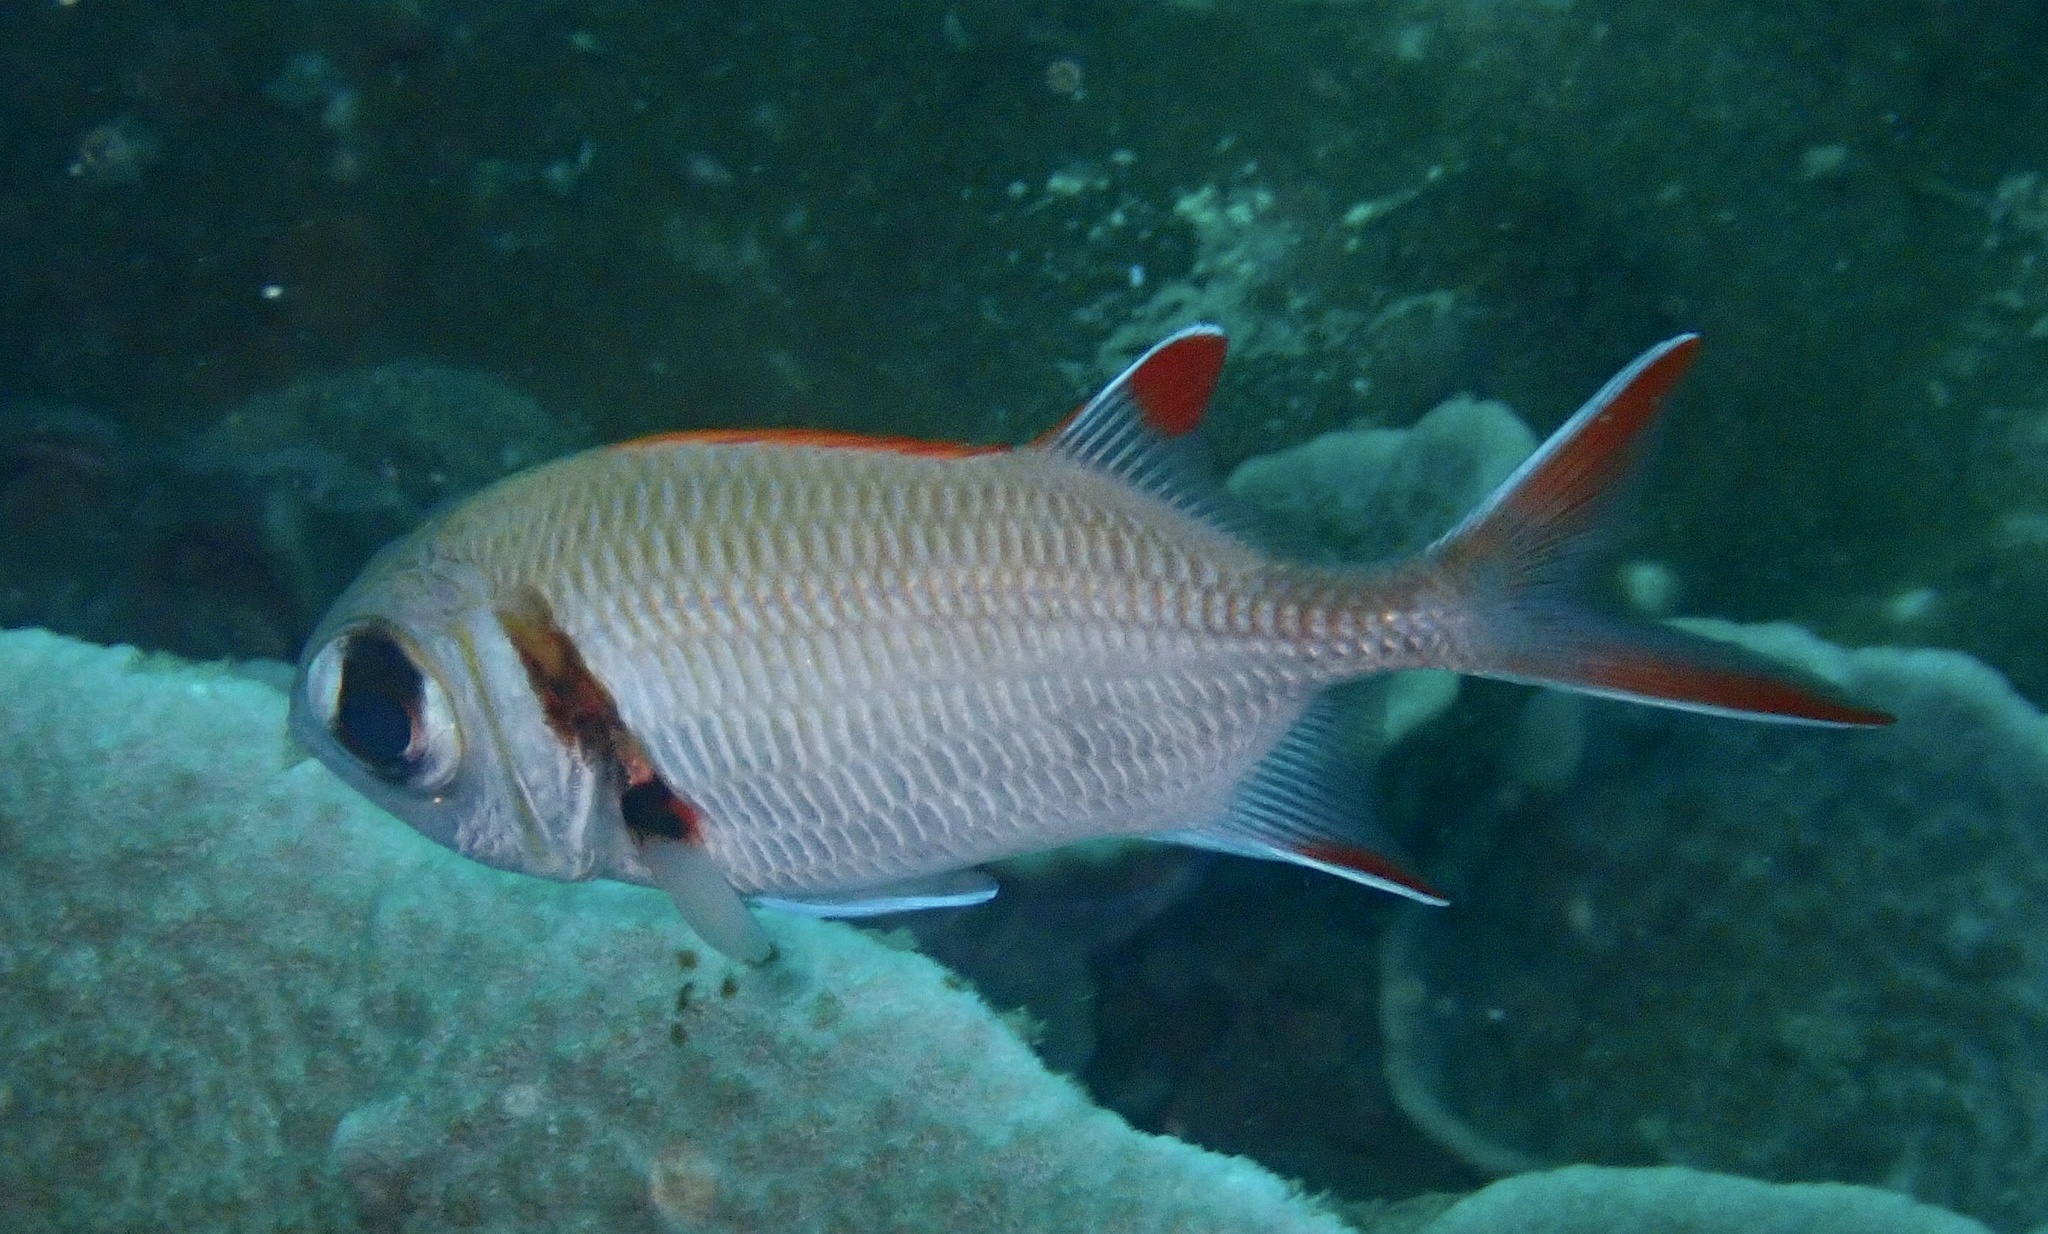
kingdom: Animalia
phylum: Chordata
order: Beryciformes
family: Holocentridae
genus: Myripristis
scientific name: Myripristis kuntee
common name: Epaulette soldierfish
